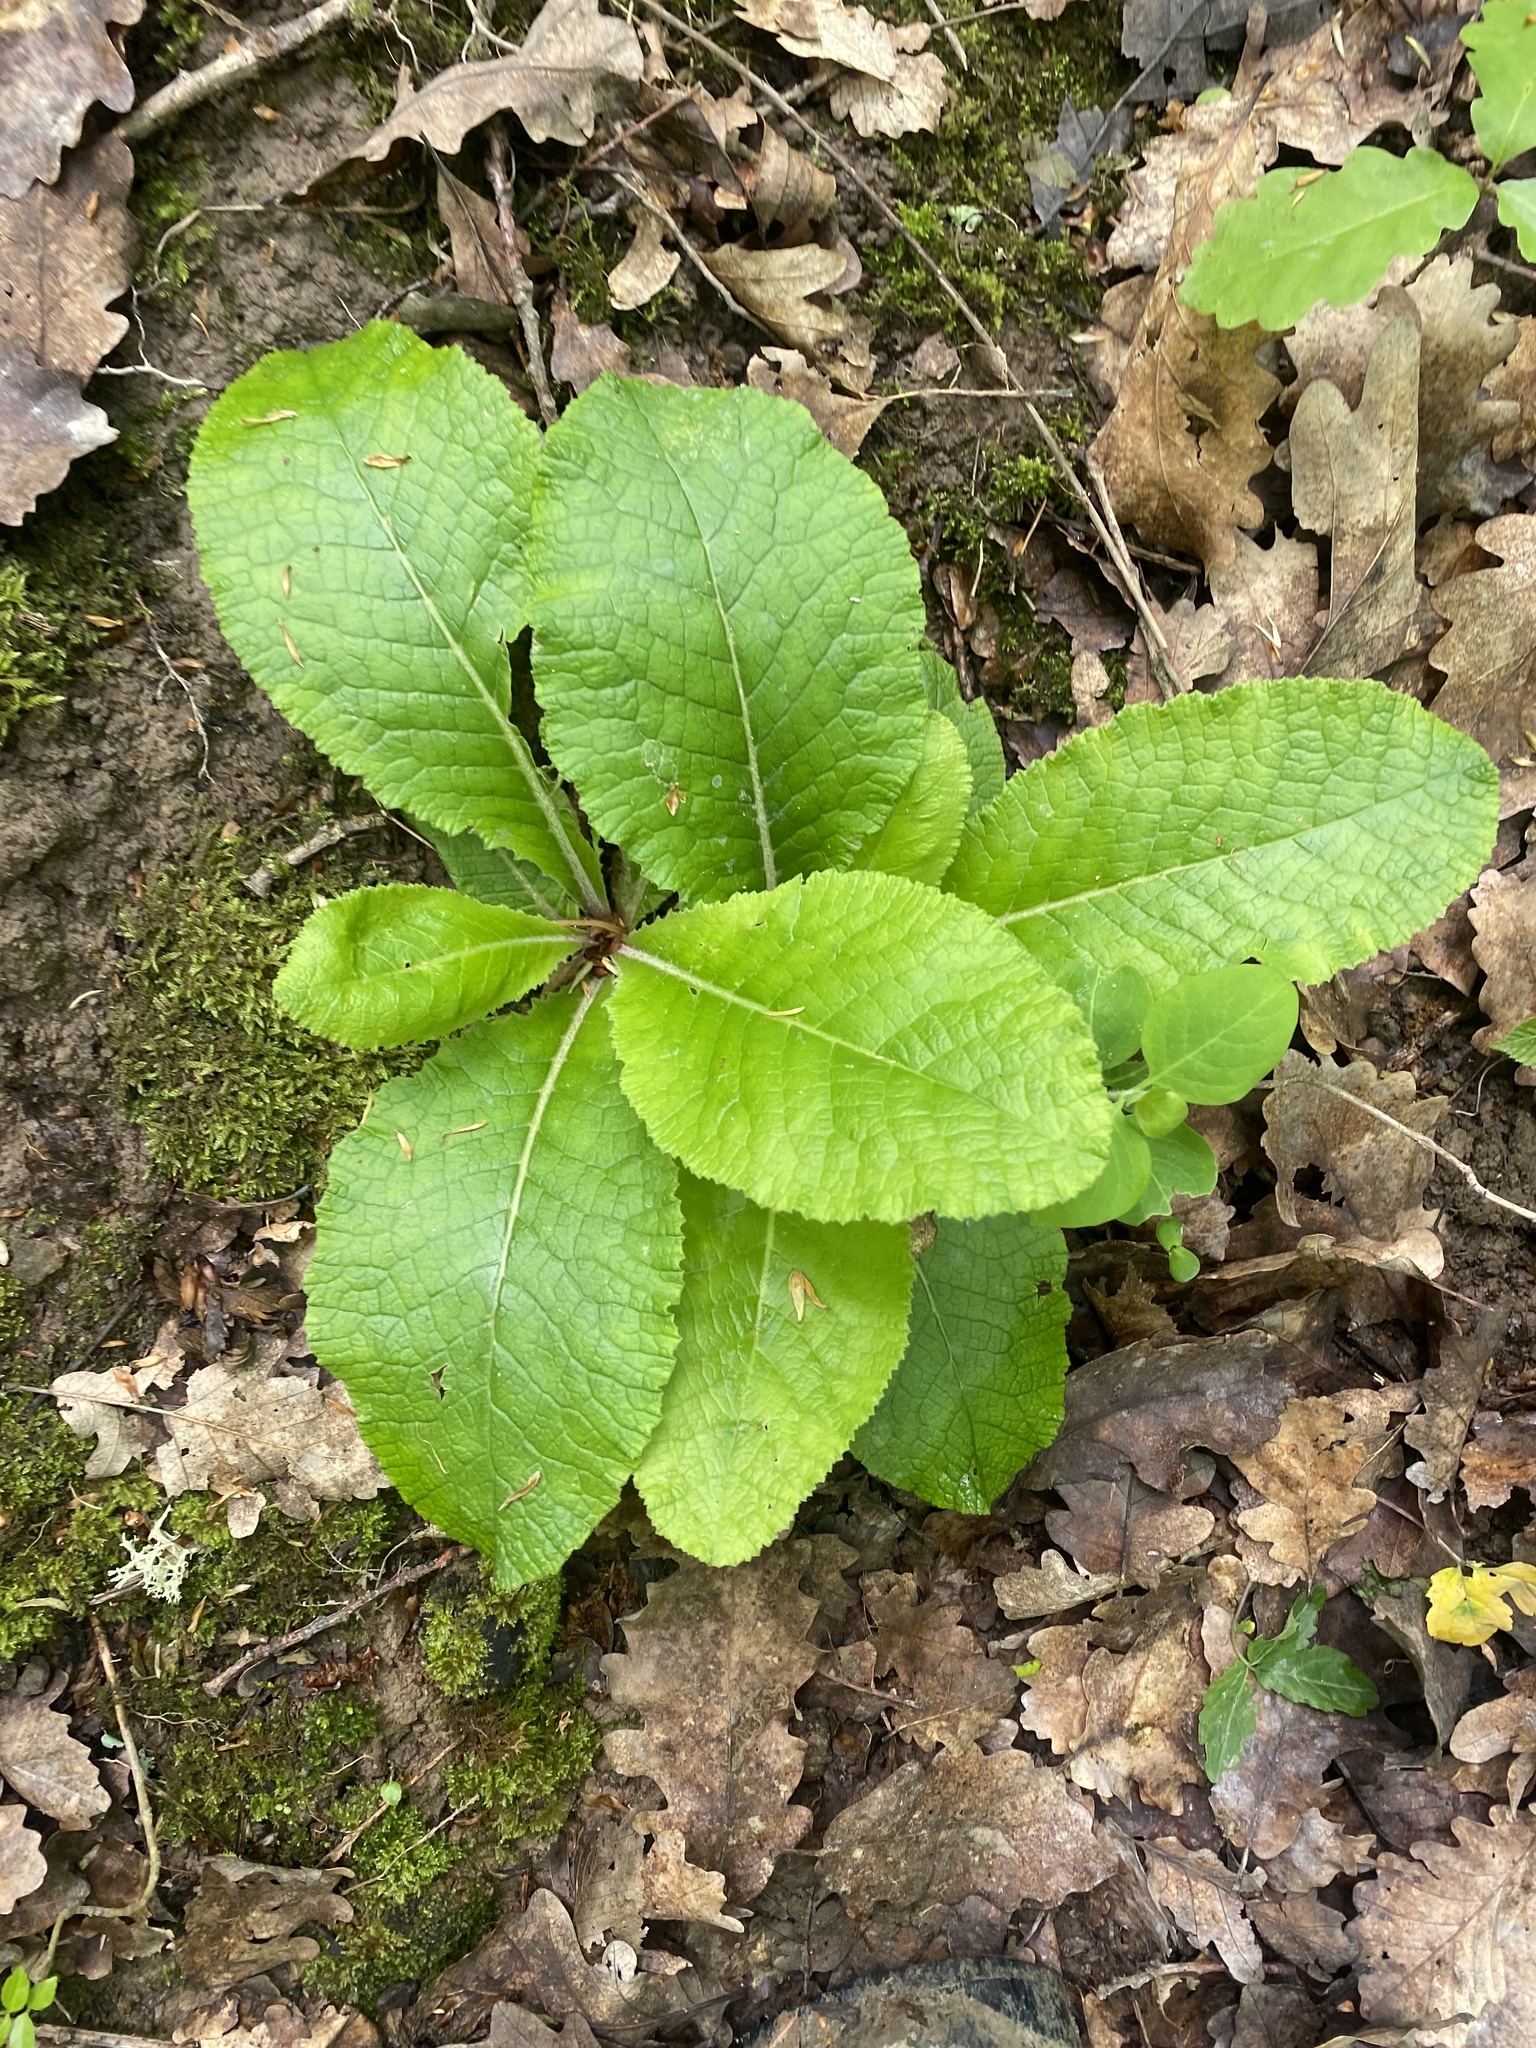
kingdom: Plantae
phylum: Tracheophyta
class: Magnoliopsida
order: Ericales
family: Primulaceae
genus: Primula
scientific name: Primula vulgaris
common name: Primrose
